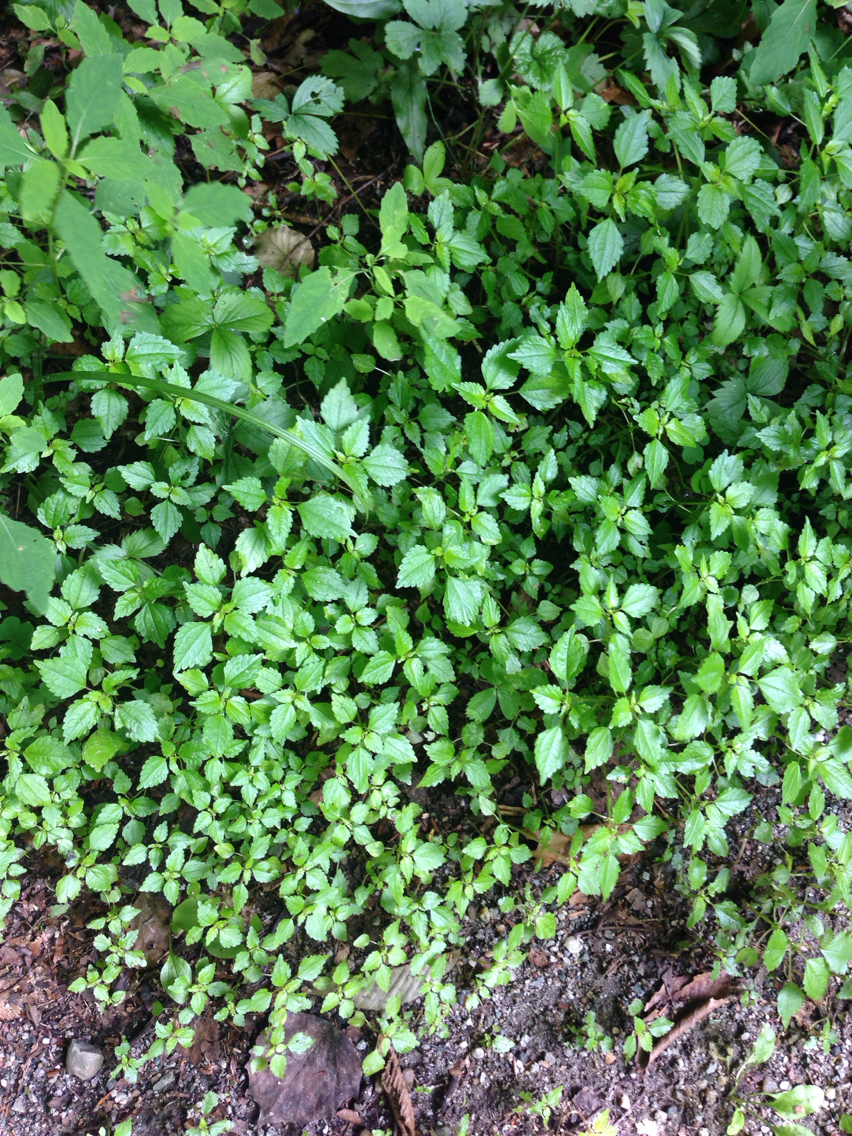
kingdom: Plantae
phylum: Tracheophyta
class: Magnoliopsida
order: Rosales
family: Urticaceae
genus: Pilea
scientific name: Pilea pumila
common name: Clearweed
